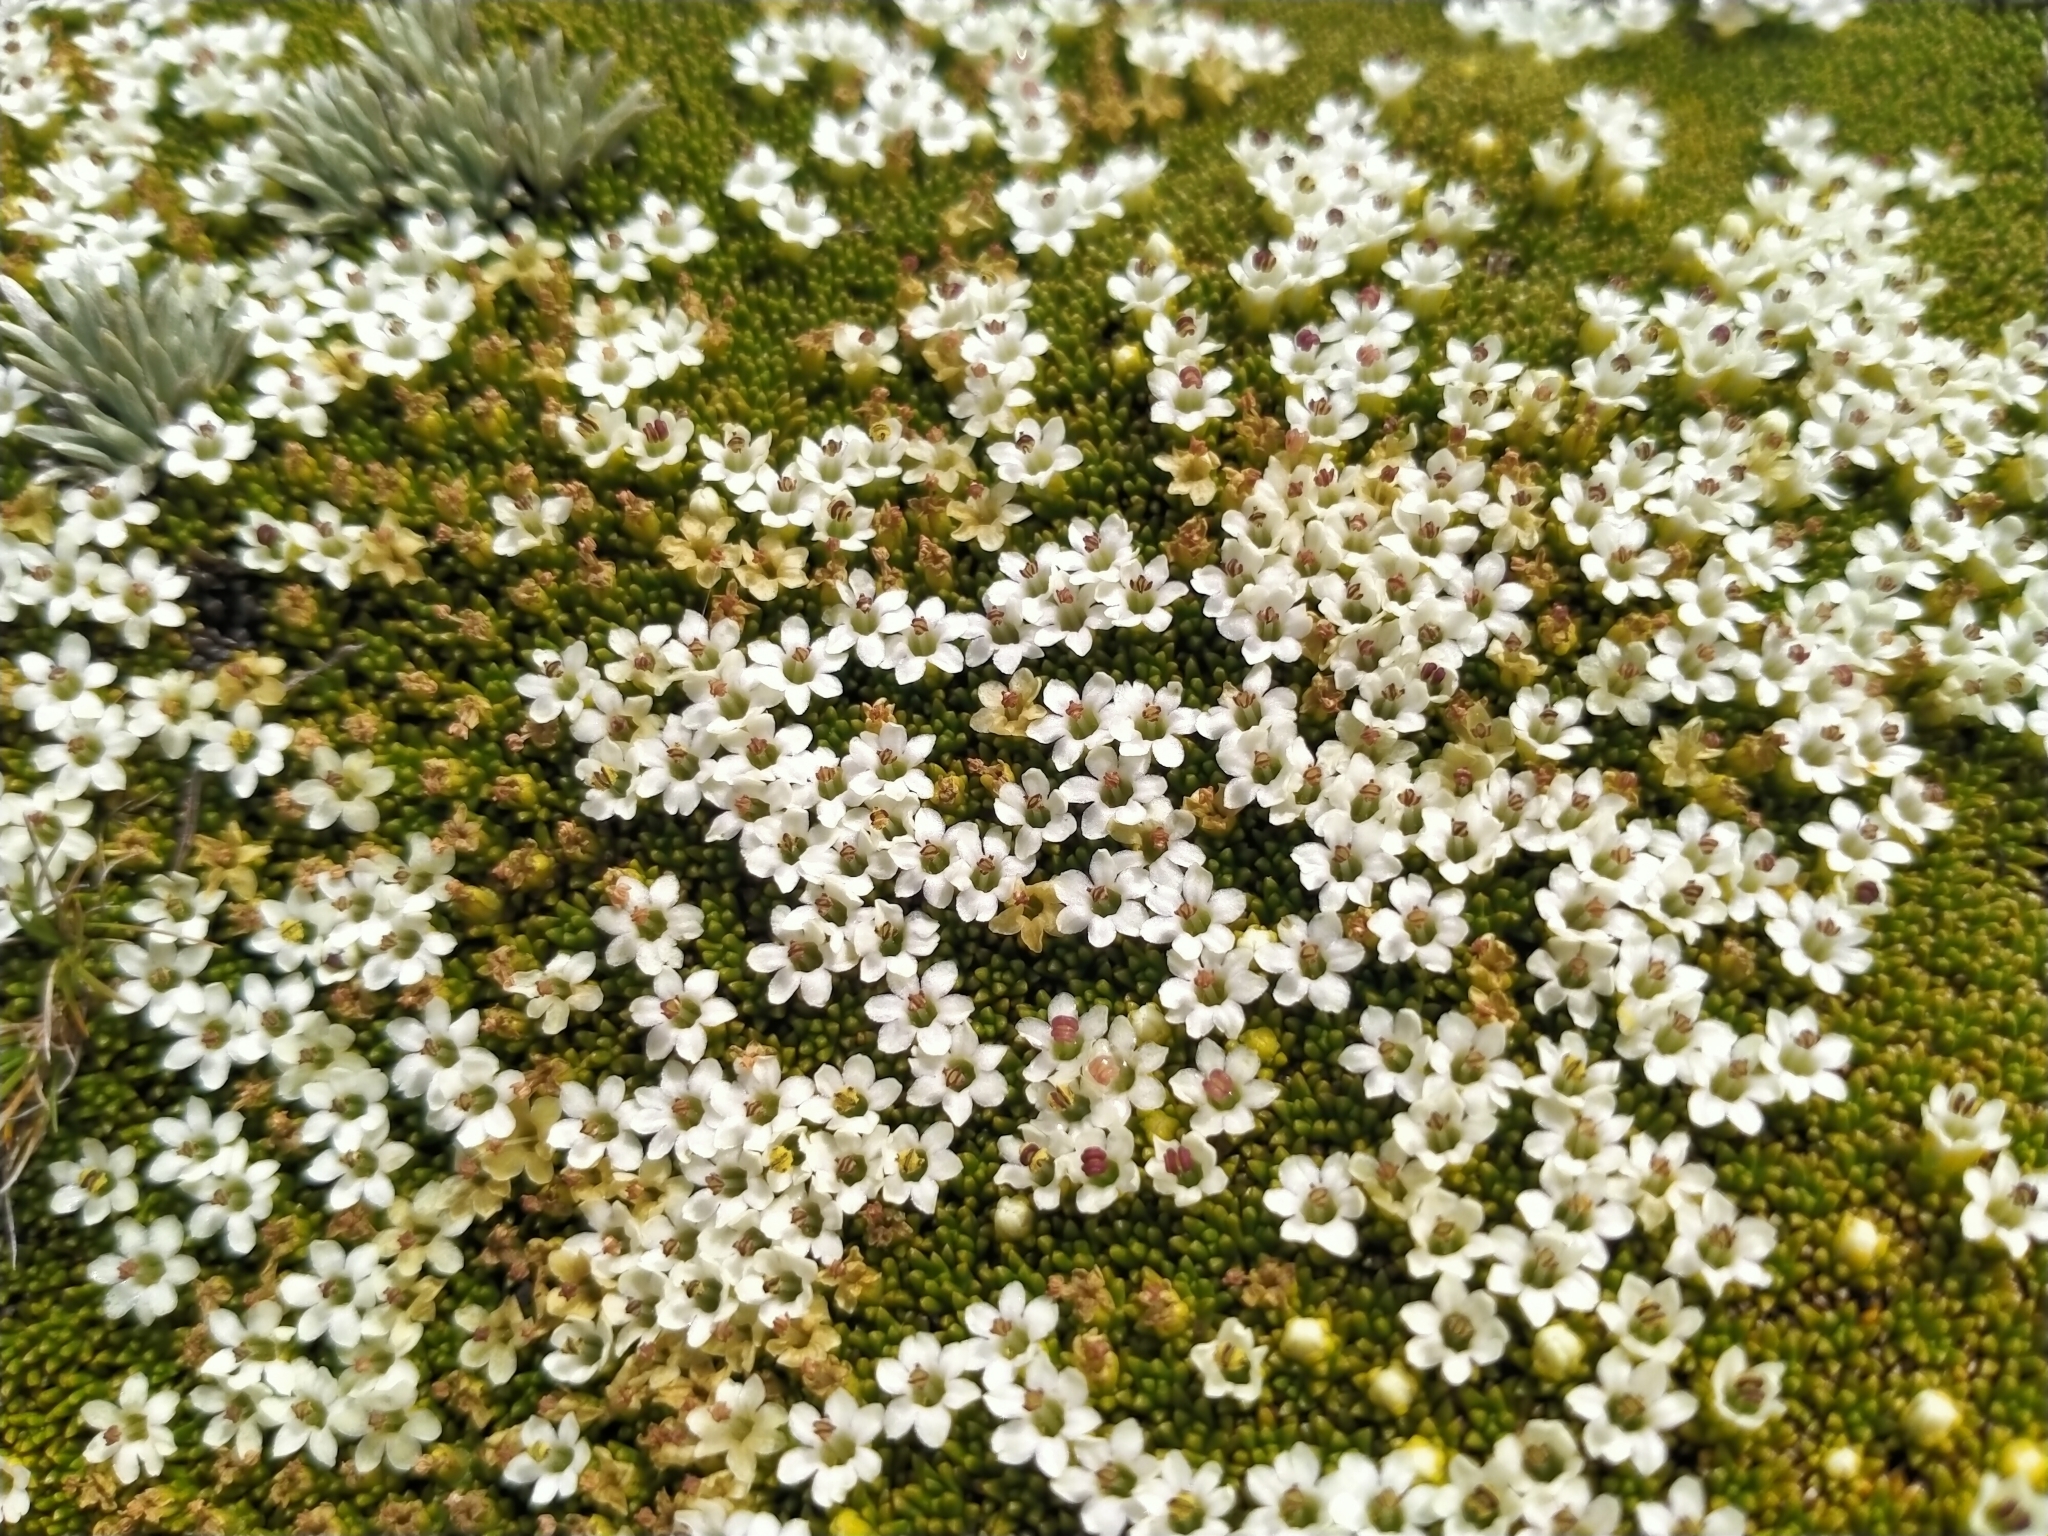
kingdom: Plantae
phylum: Tracheophyta
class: Magnoliopsida
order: Asterales
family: Stylidiaceae
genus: Phyllachne
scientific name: Phyllachne colensoi
